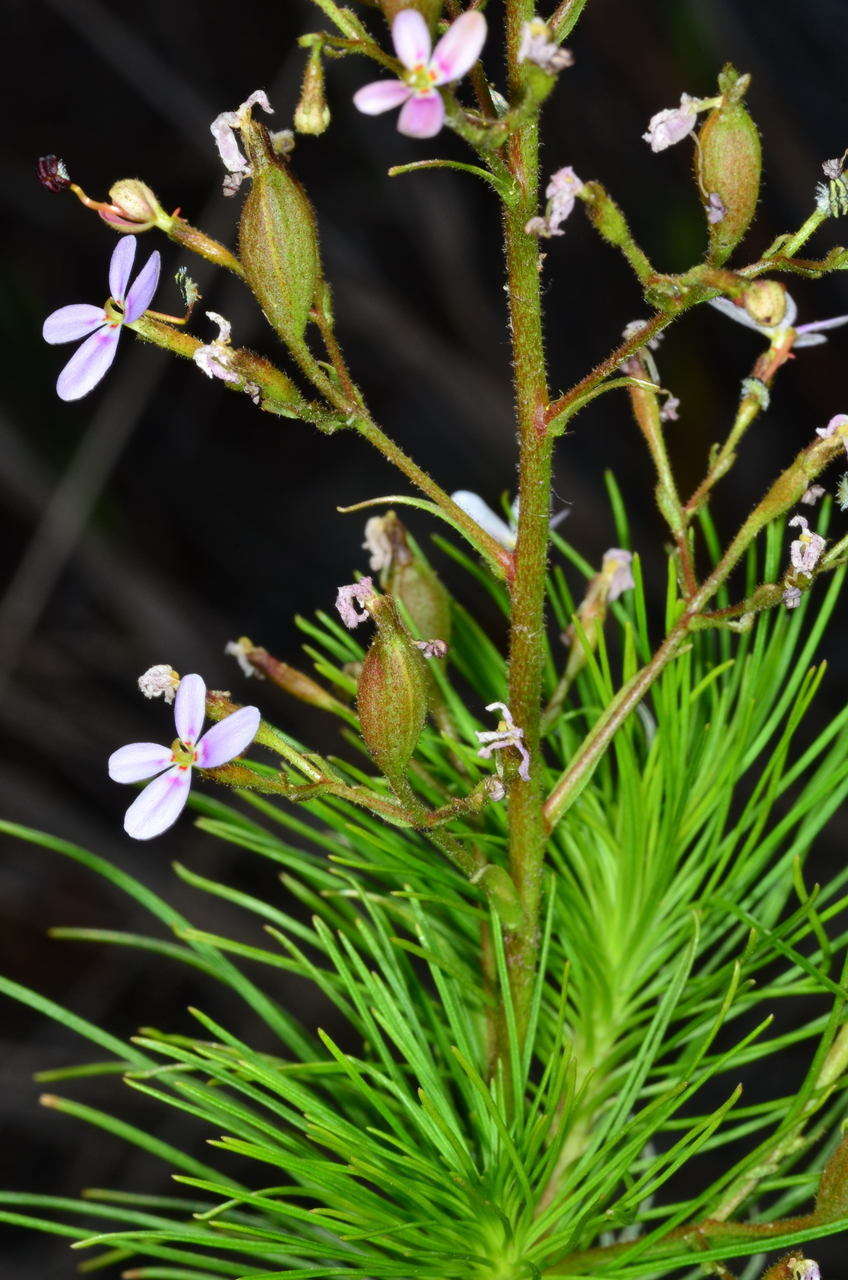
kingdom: Plantae
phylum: Tracheophyta
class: Magnoliopsida
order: Asterales
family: Stylidiaceae
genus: Stylidium
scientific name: Stylidium laricifolium
